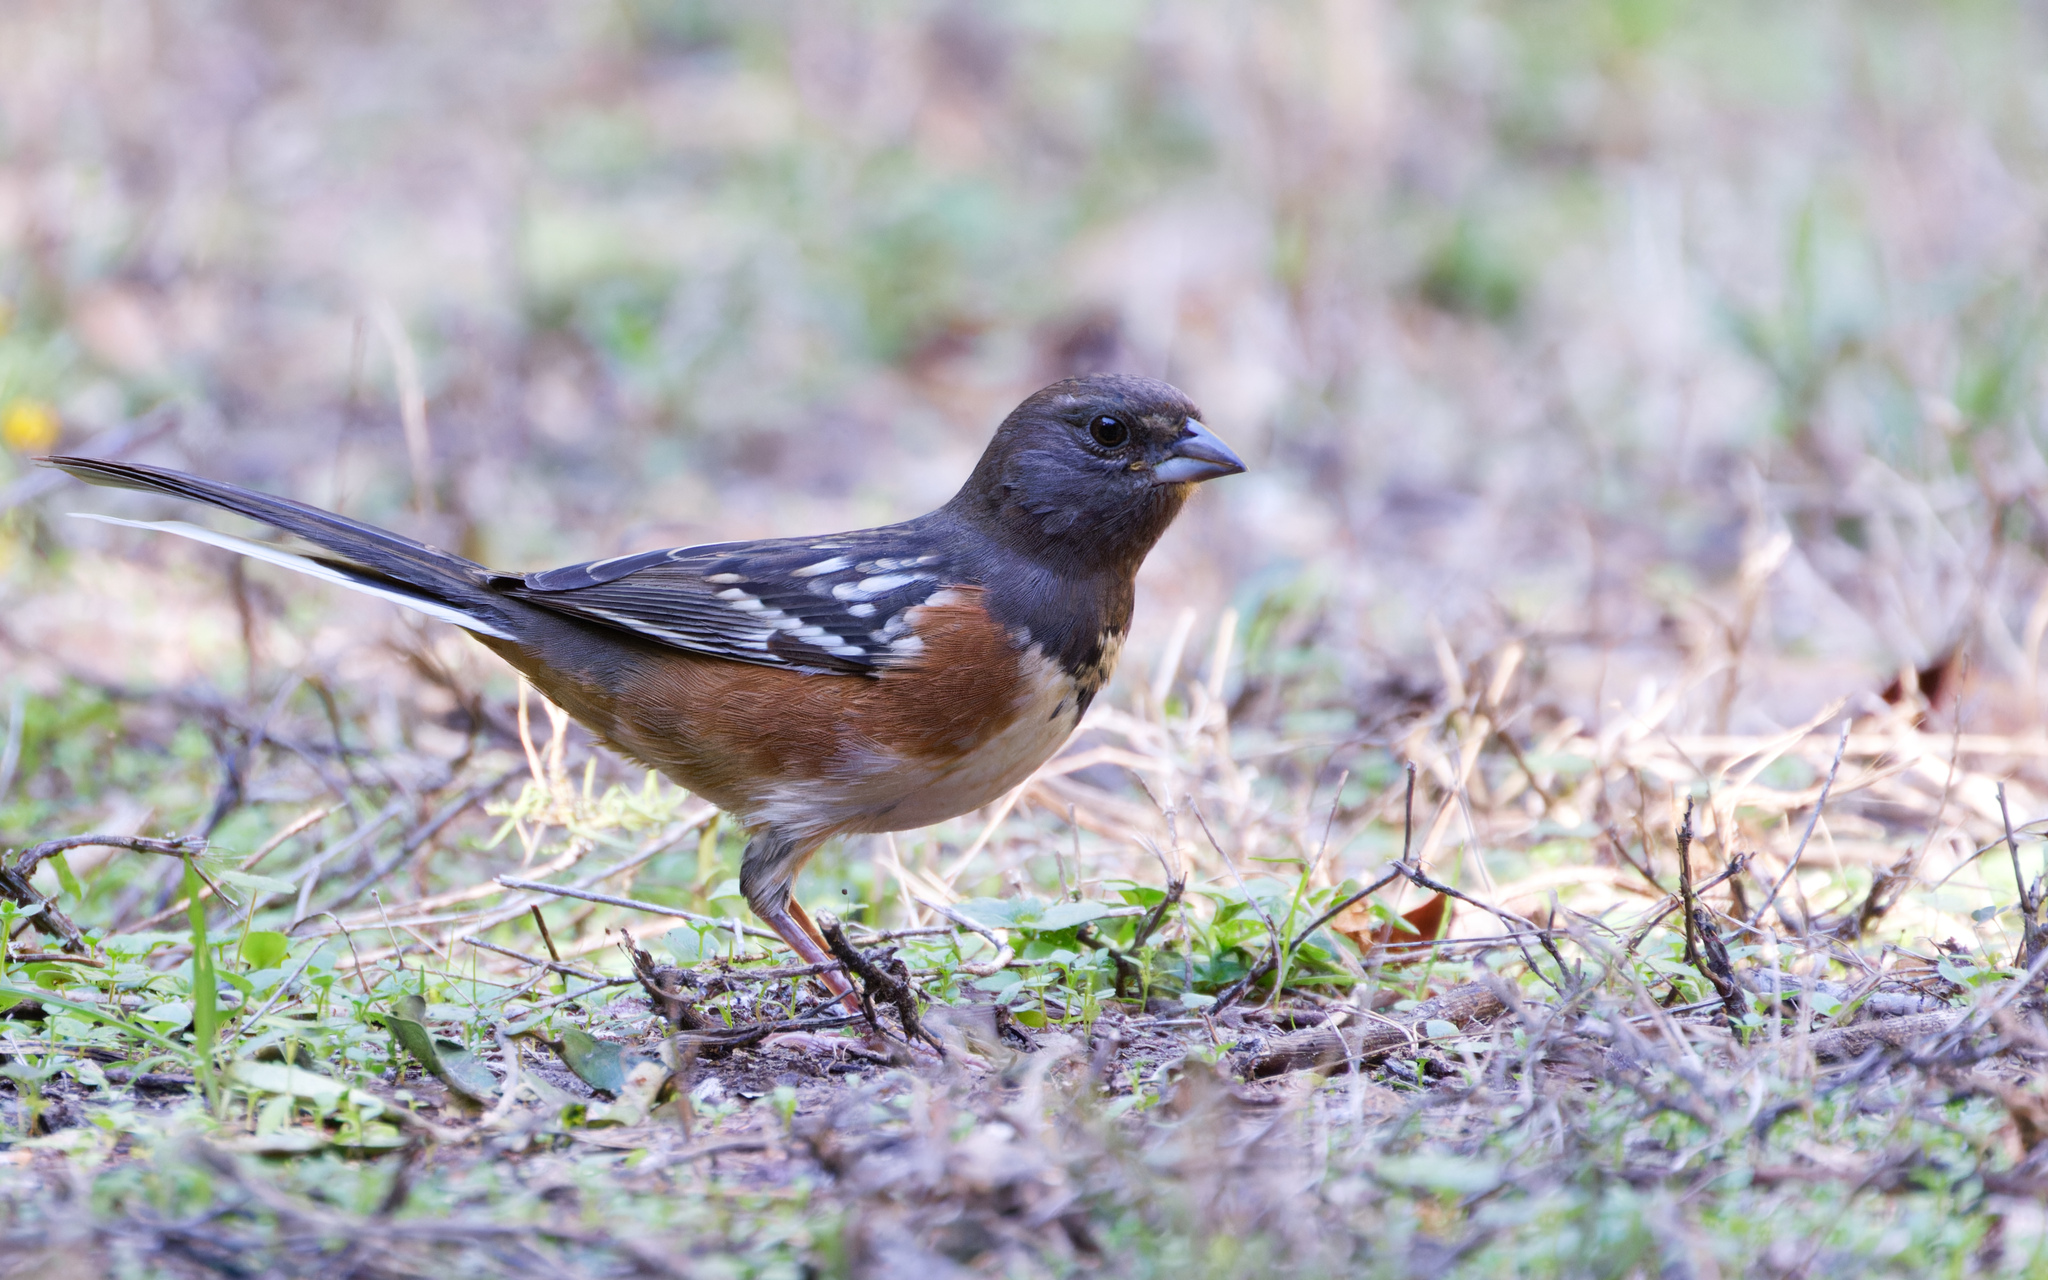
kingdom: Animalia
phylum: Chordata
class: Aves
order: Passeriformes
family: Passerellidae
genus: Pipilo
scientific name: Pipilo maculatus
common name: Spotted towhee
